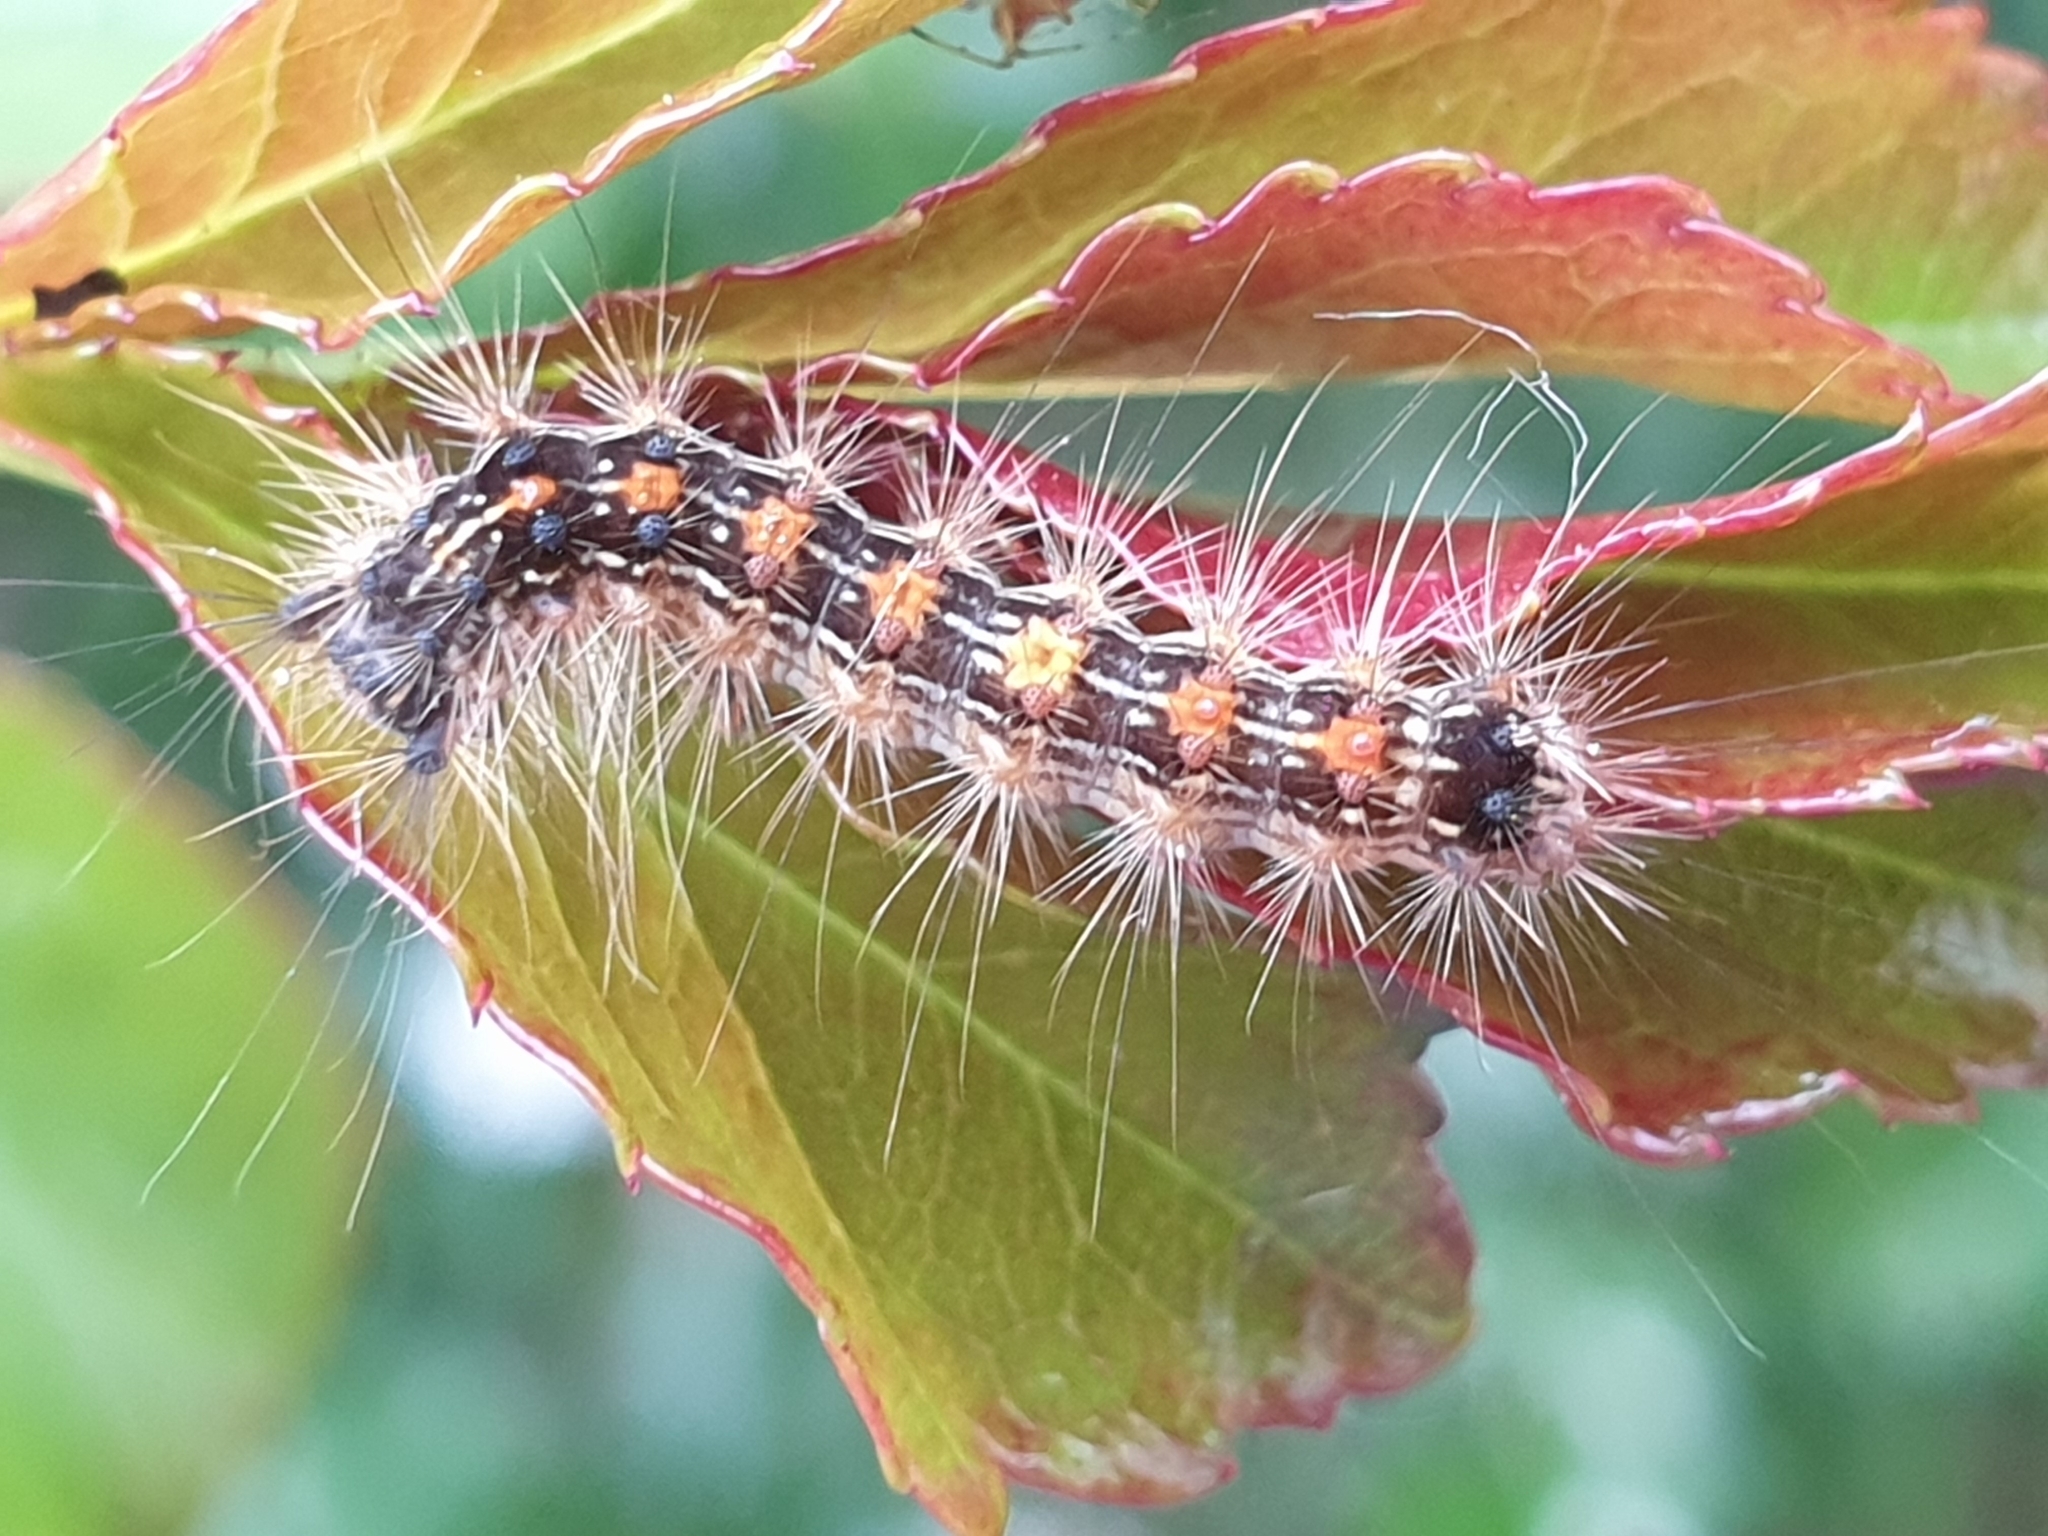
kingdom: Animalia
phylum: Arthropoda
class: Insecta
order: Lepidoptera
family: Erebidae
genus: Lymantria
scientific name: Lymantria dispar
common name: Gypsy moth
